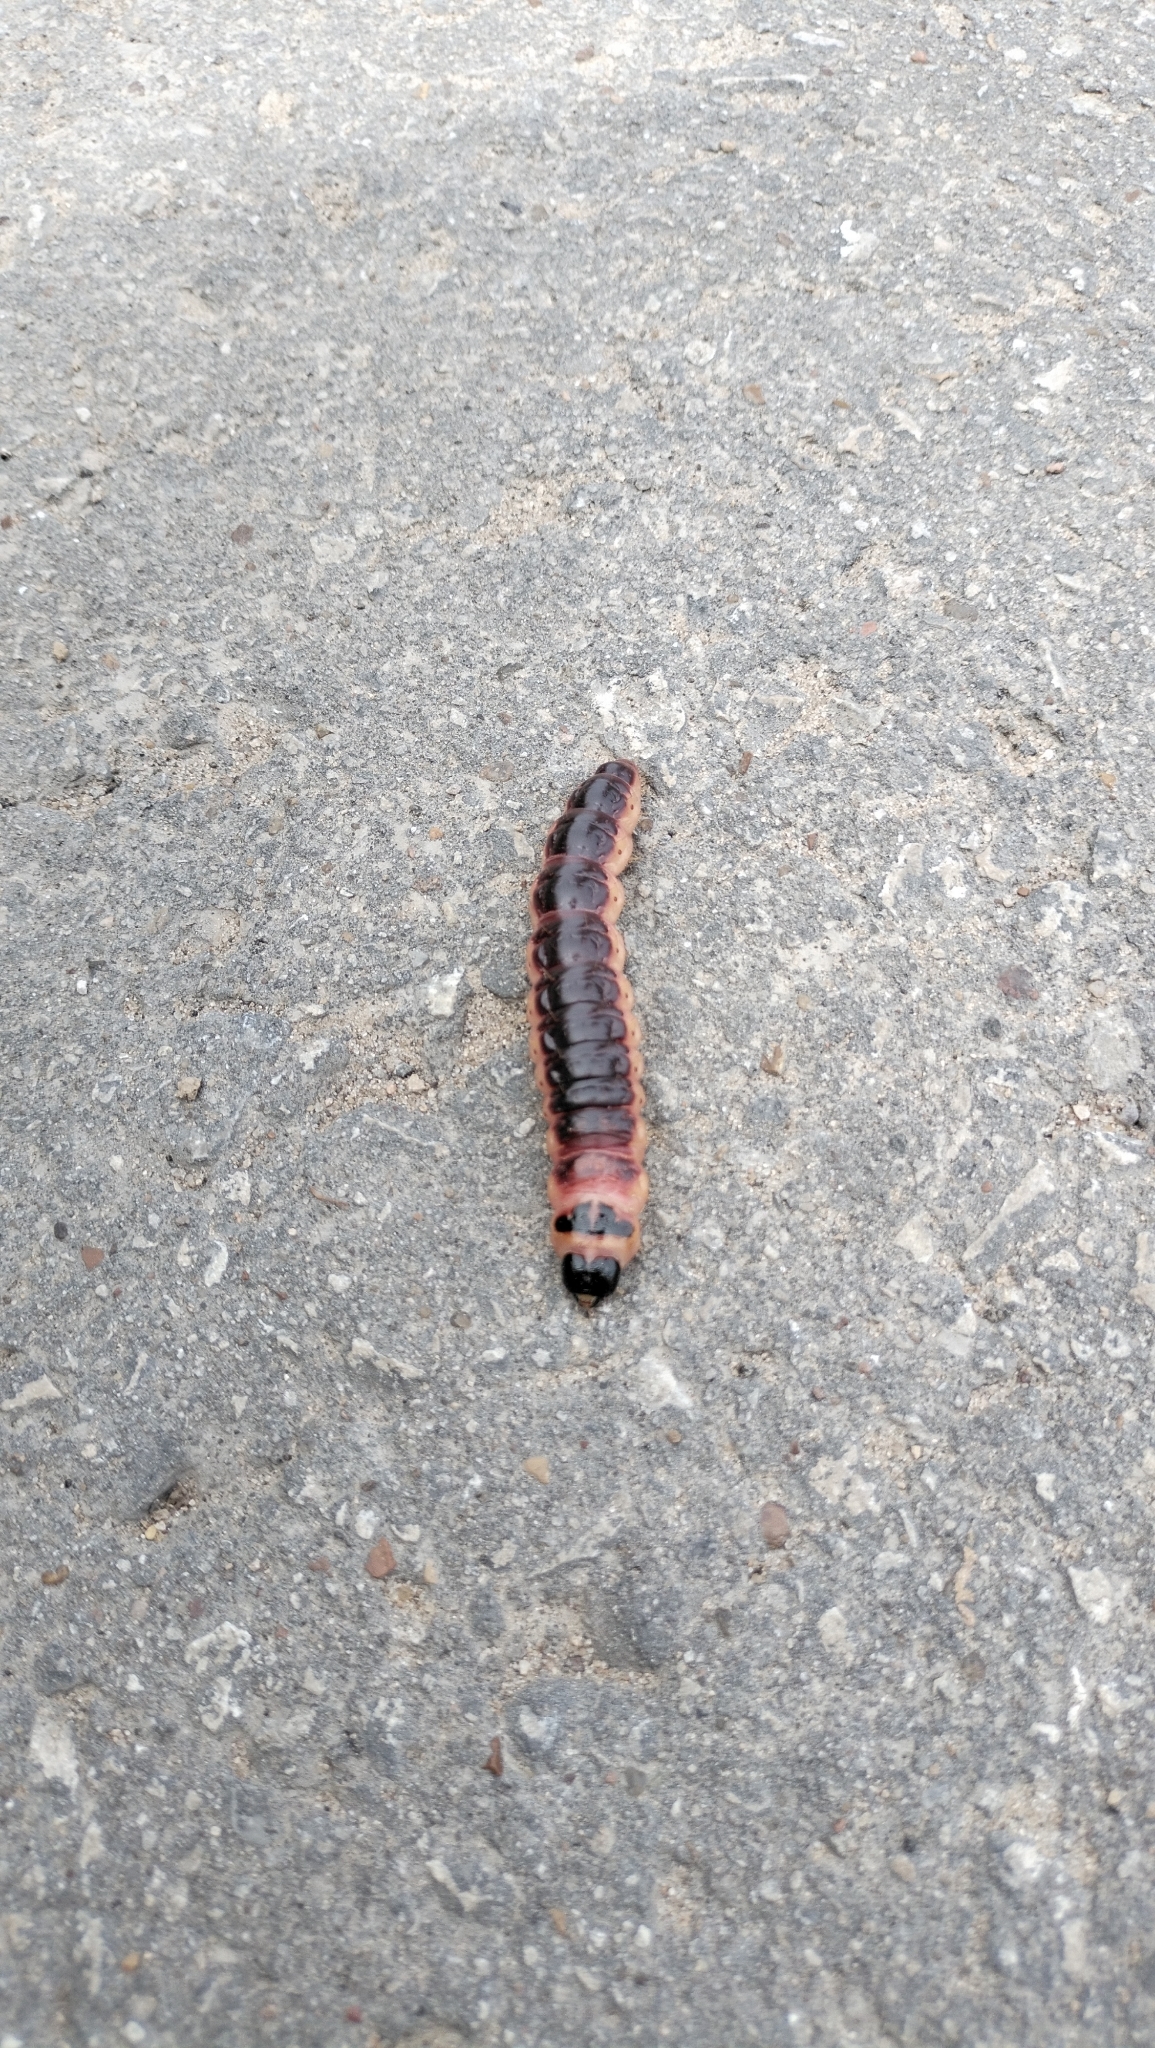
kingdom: Animalia
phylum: Arthropoda
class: Insecta
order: Lepidoptera
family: Cossidae
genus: Cossus
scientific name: Cossus cossus
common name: Goat moth
